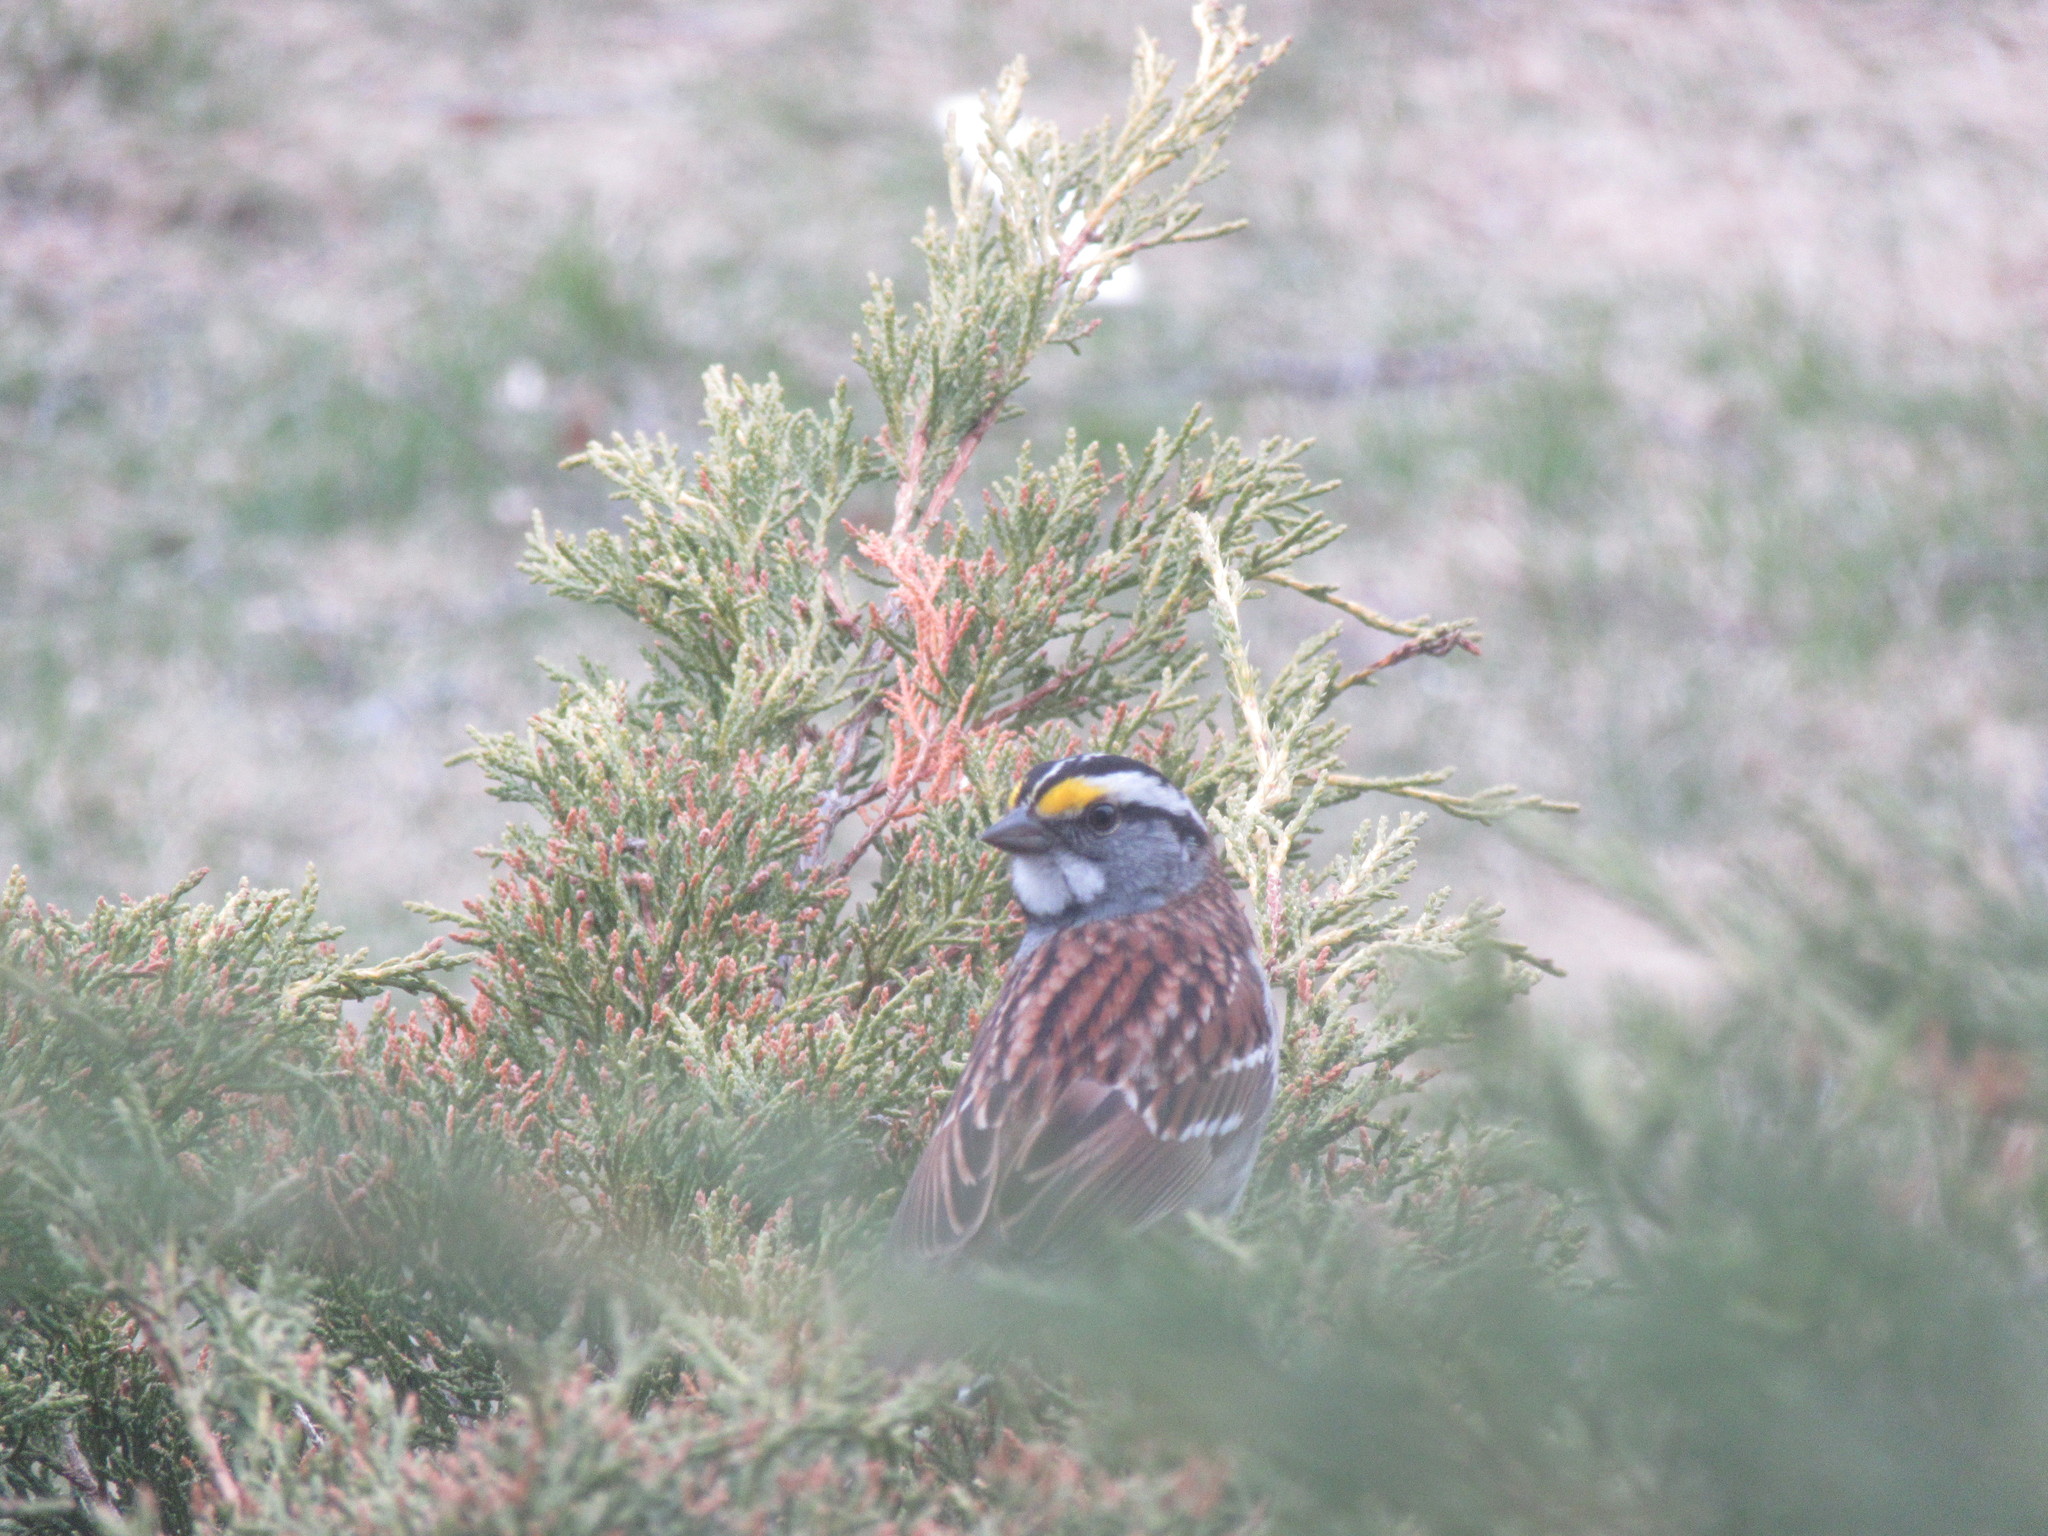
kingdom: Animalia
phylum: Chordata
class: Aves
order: Passeriformes
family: Passerellidae
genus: Zonotrichia
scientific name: Zonotrichia albicollis
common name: White-throated sparrow
